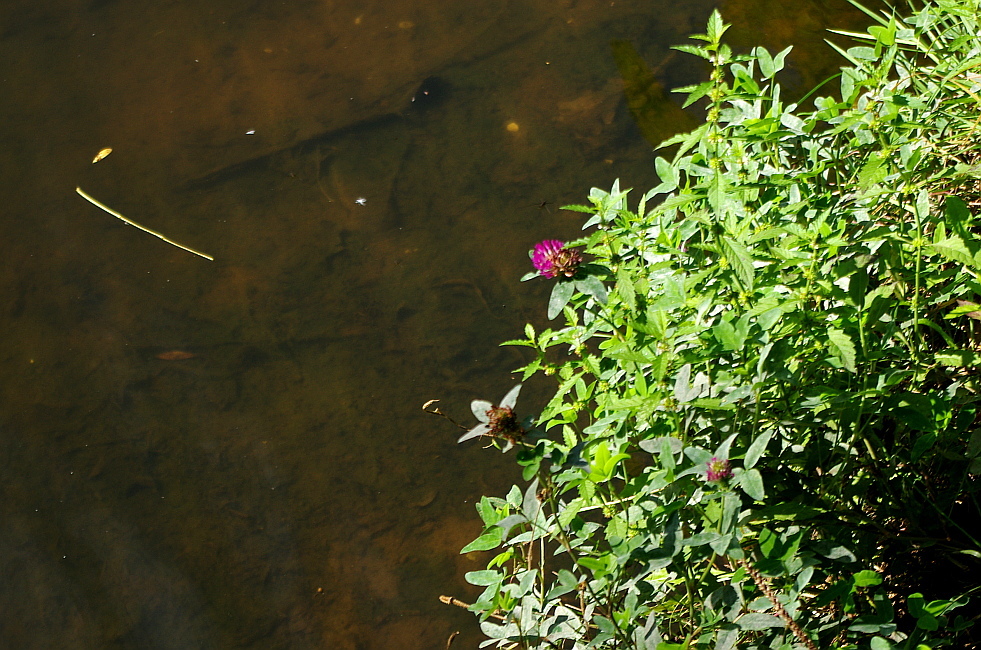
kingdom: Plantae
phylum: Tracheophyta
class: Magnoliopsida
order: Fabales
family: Fabaceae
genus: Trifolium
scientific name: Trifolium medium
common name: Zigzag clover
